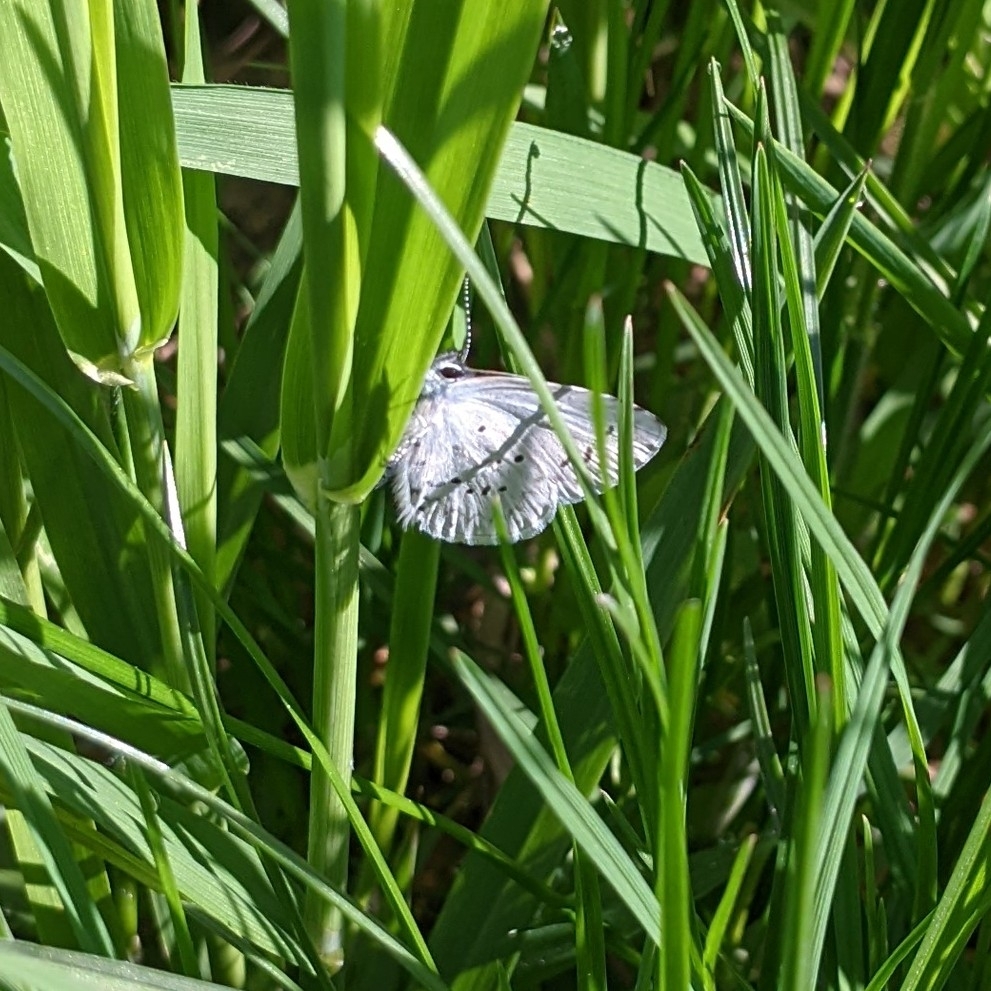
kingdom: Animalia
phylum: Arthropoda
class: Insecta
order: Lepidoptera
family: Lycaenidae
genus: Celastrina
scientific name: Celastrina ladon
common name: Spring azure
